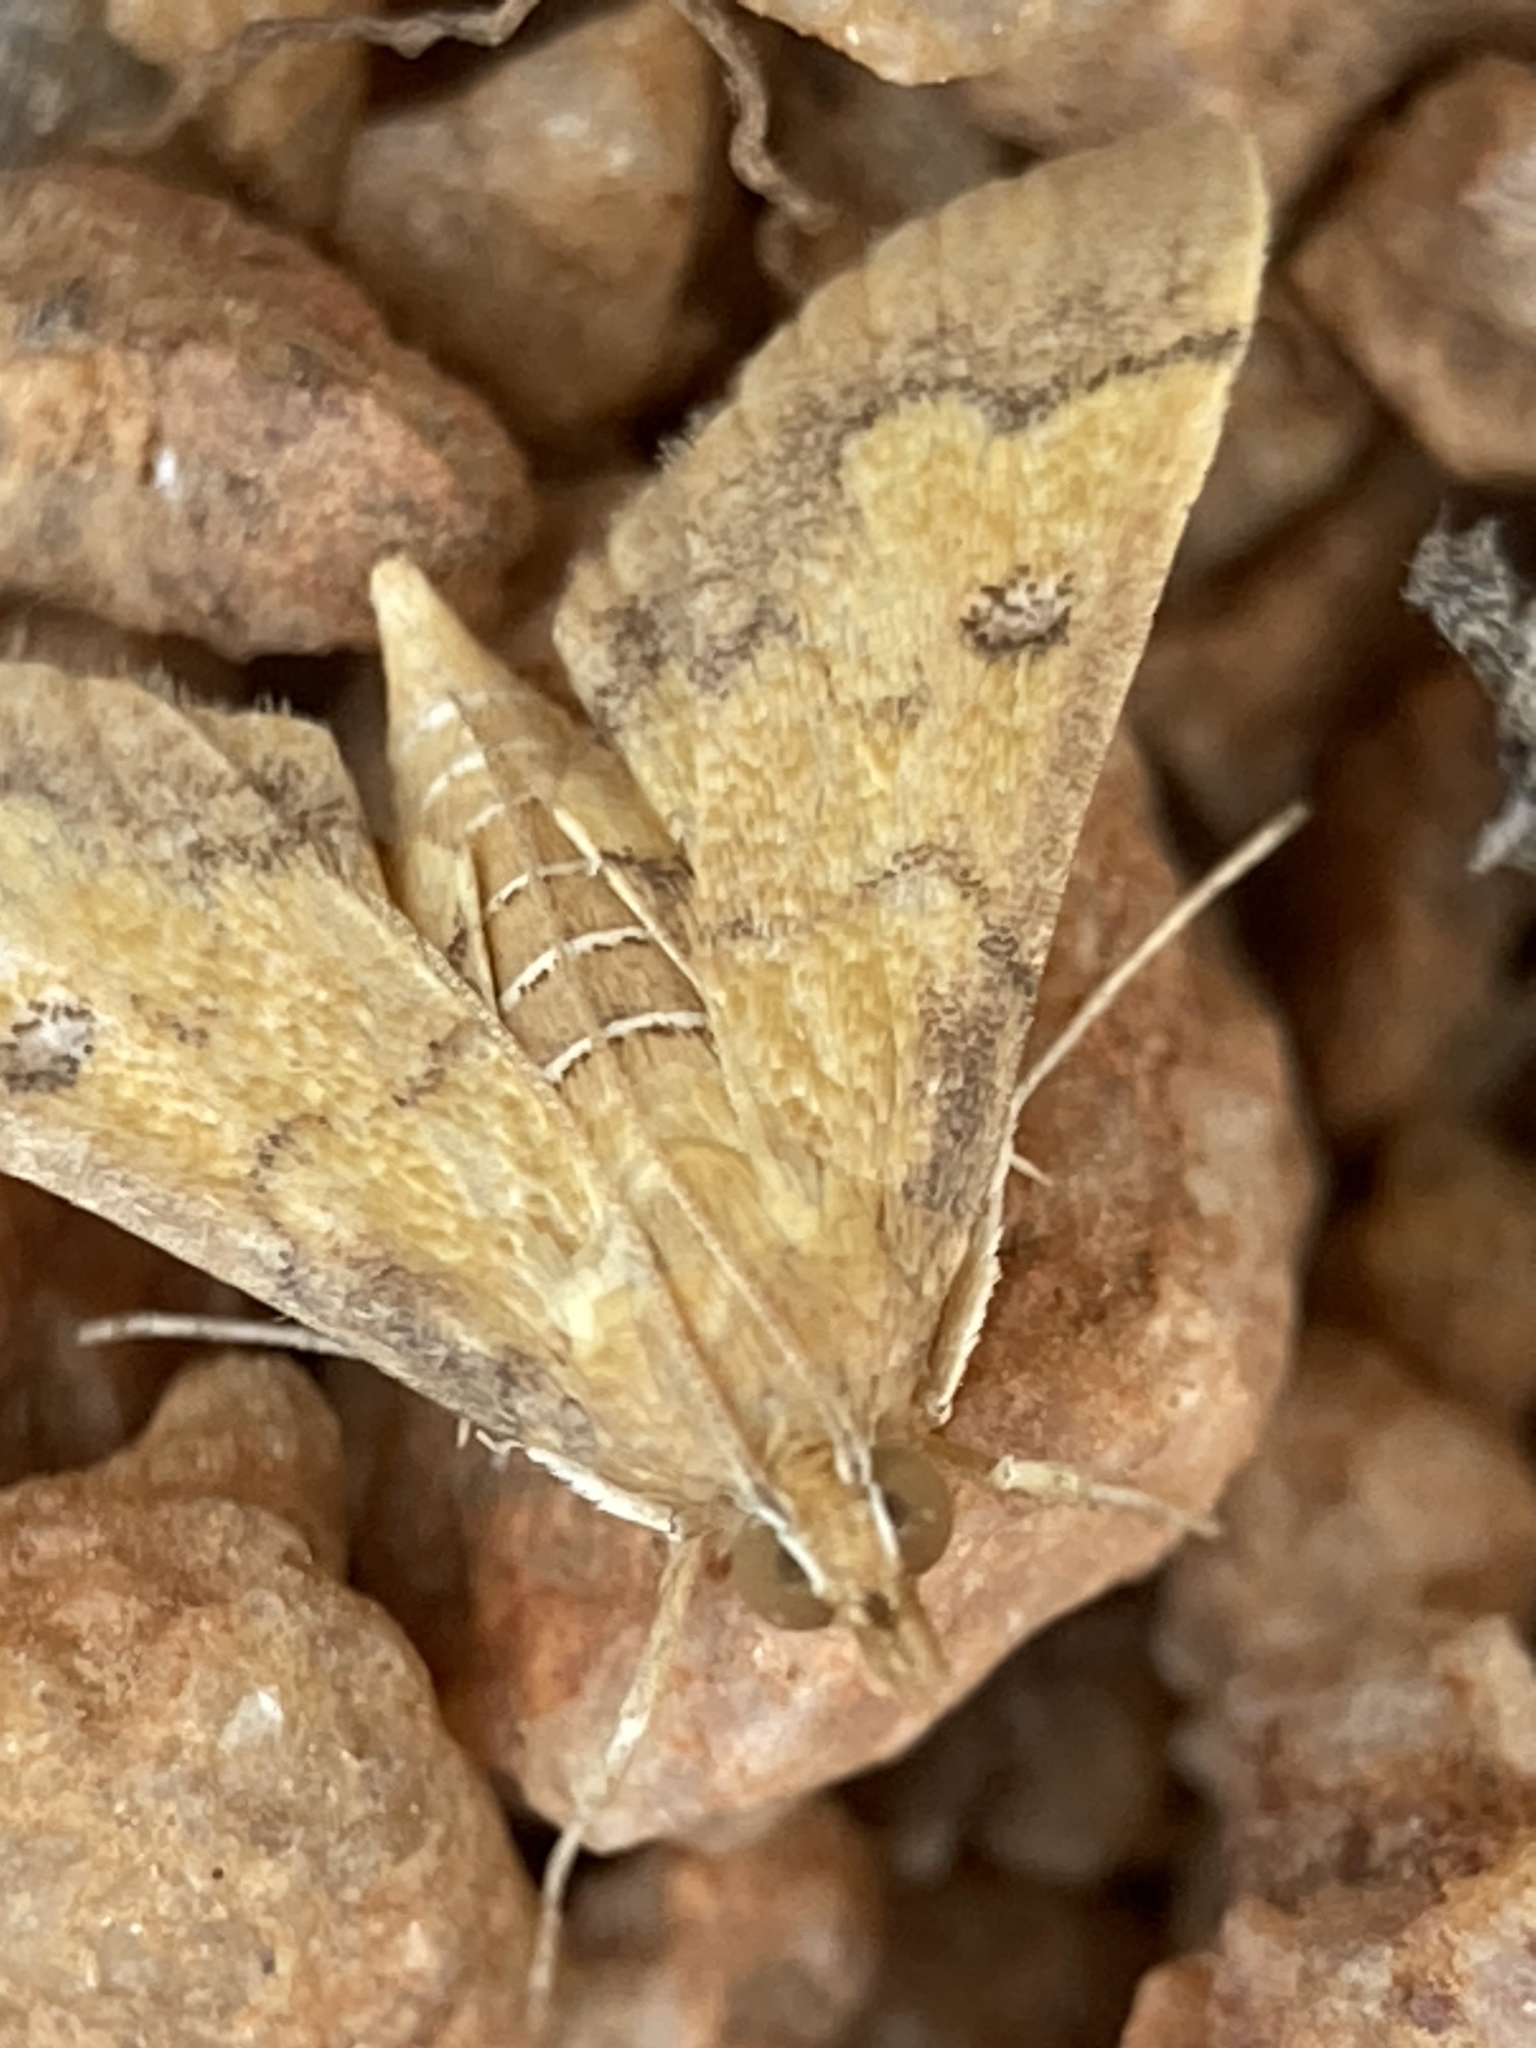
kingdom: Animalia
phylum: Arthropoda
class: Insecta
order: Lepidoptera
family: Crambidae
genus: Ischnurges
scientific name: Ischnurges luteomarginalis
